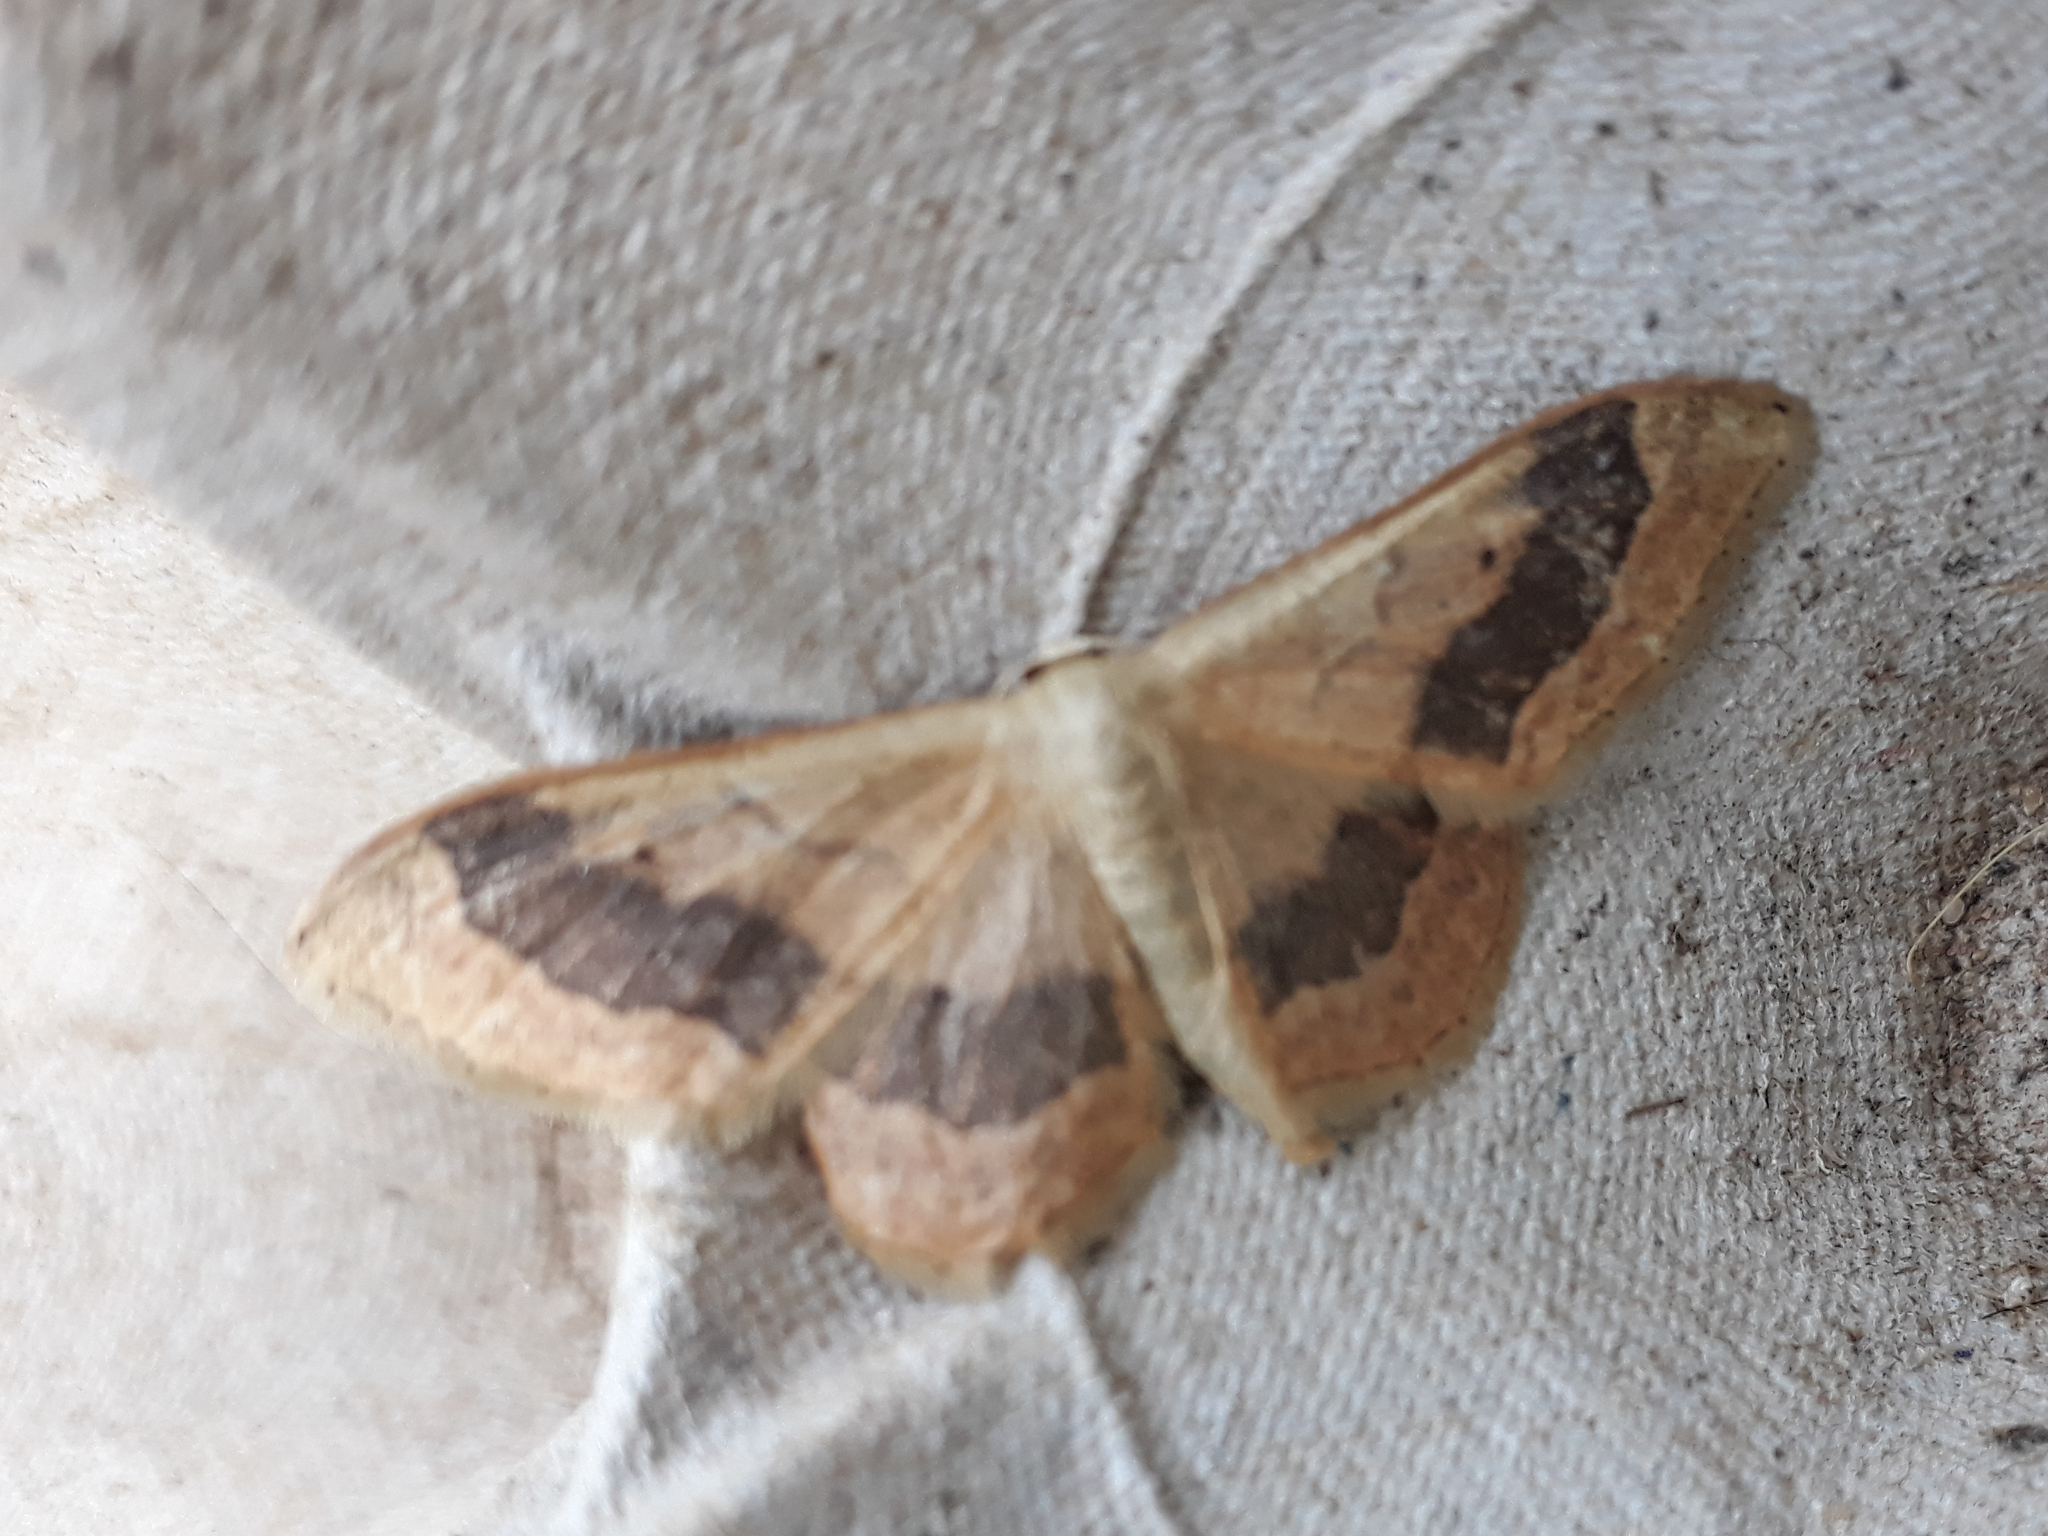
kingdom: Animalia
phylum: Arthropoda
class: Insecta
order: Lepidoptera
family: Geometridae
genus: Idaea
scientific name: Idaea aversata
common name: Riband wave
